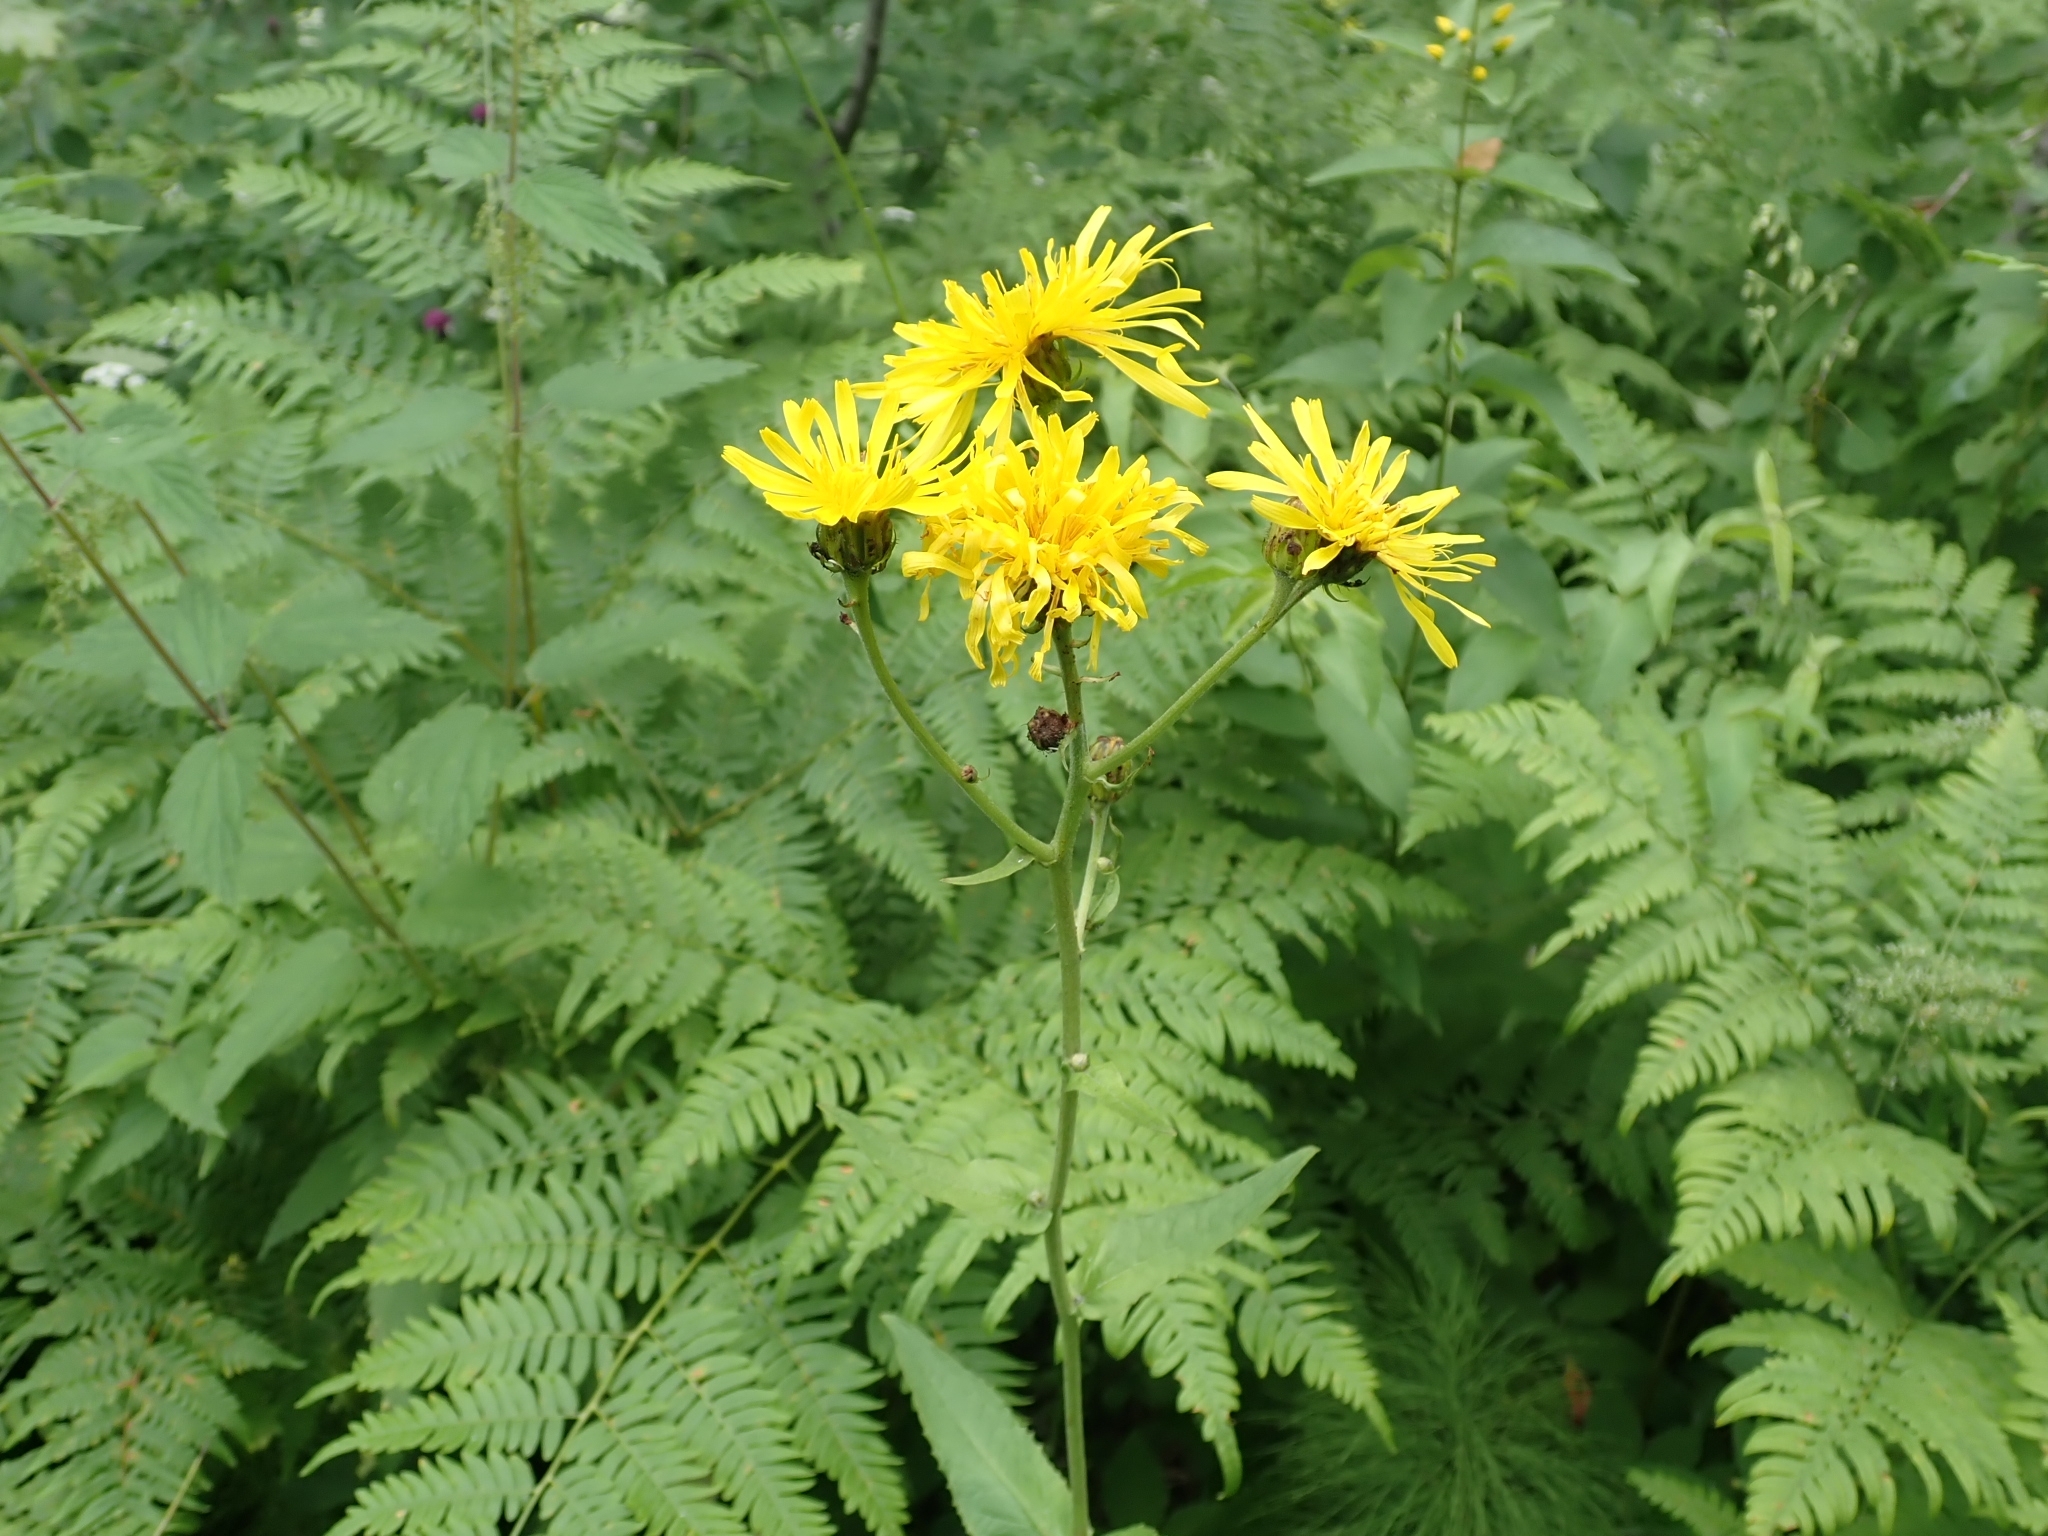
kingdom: Plantae
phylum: Tracheophyta
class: Magnoliopsida
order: Asterales
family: Asteraceae
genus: Crepis
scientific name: Crepis sibirica
